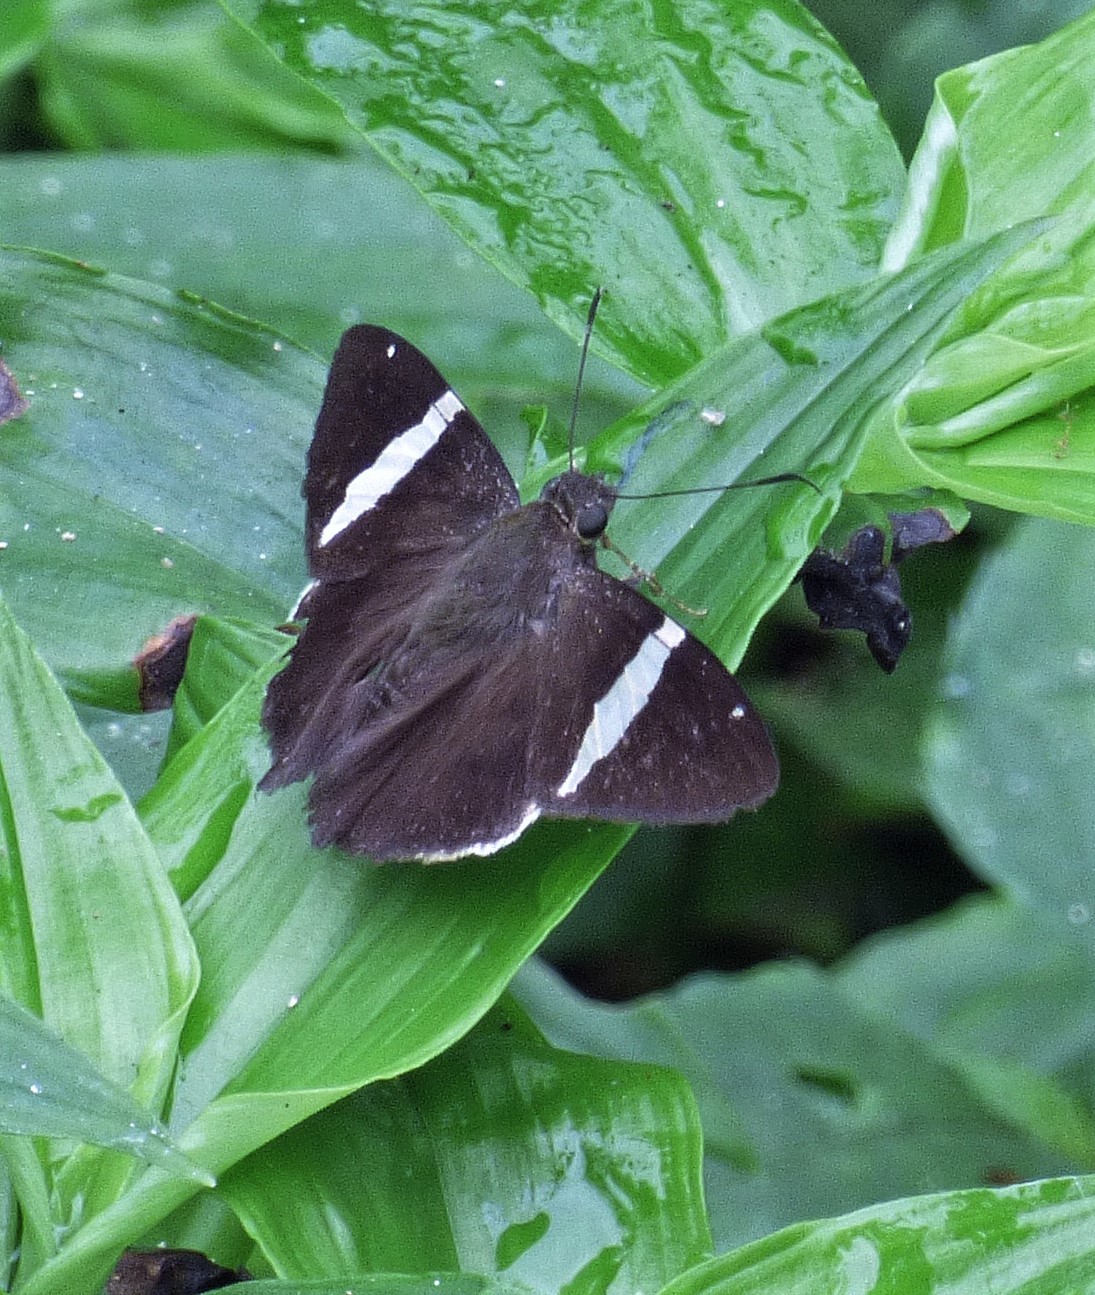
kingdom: Animalia
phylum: Arthropoda
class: Insecta
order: Lepidoptera
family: Hesperiidae
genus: Autochton
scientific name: Autochton zarex
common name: Sharp banded-skipper
